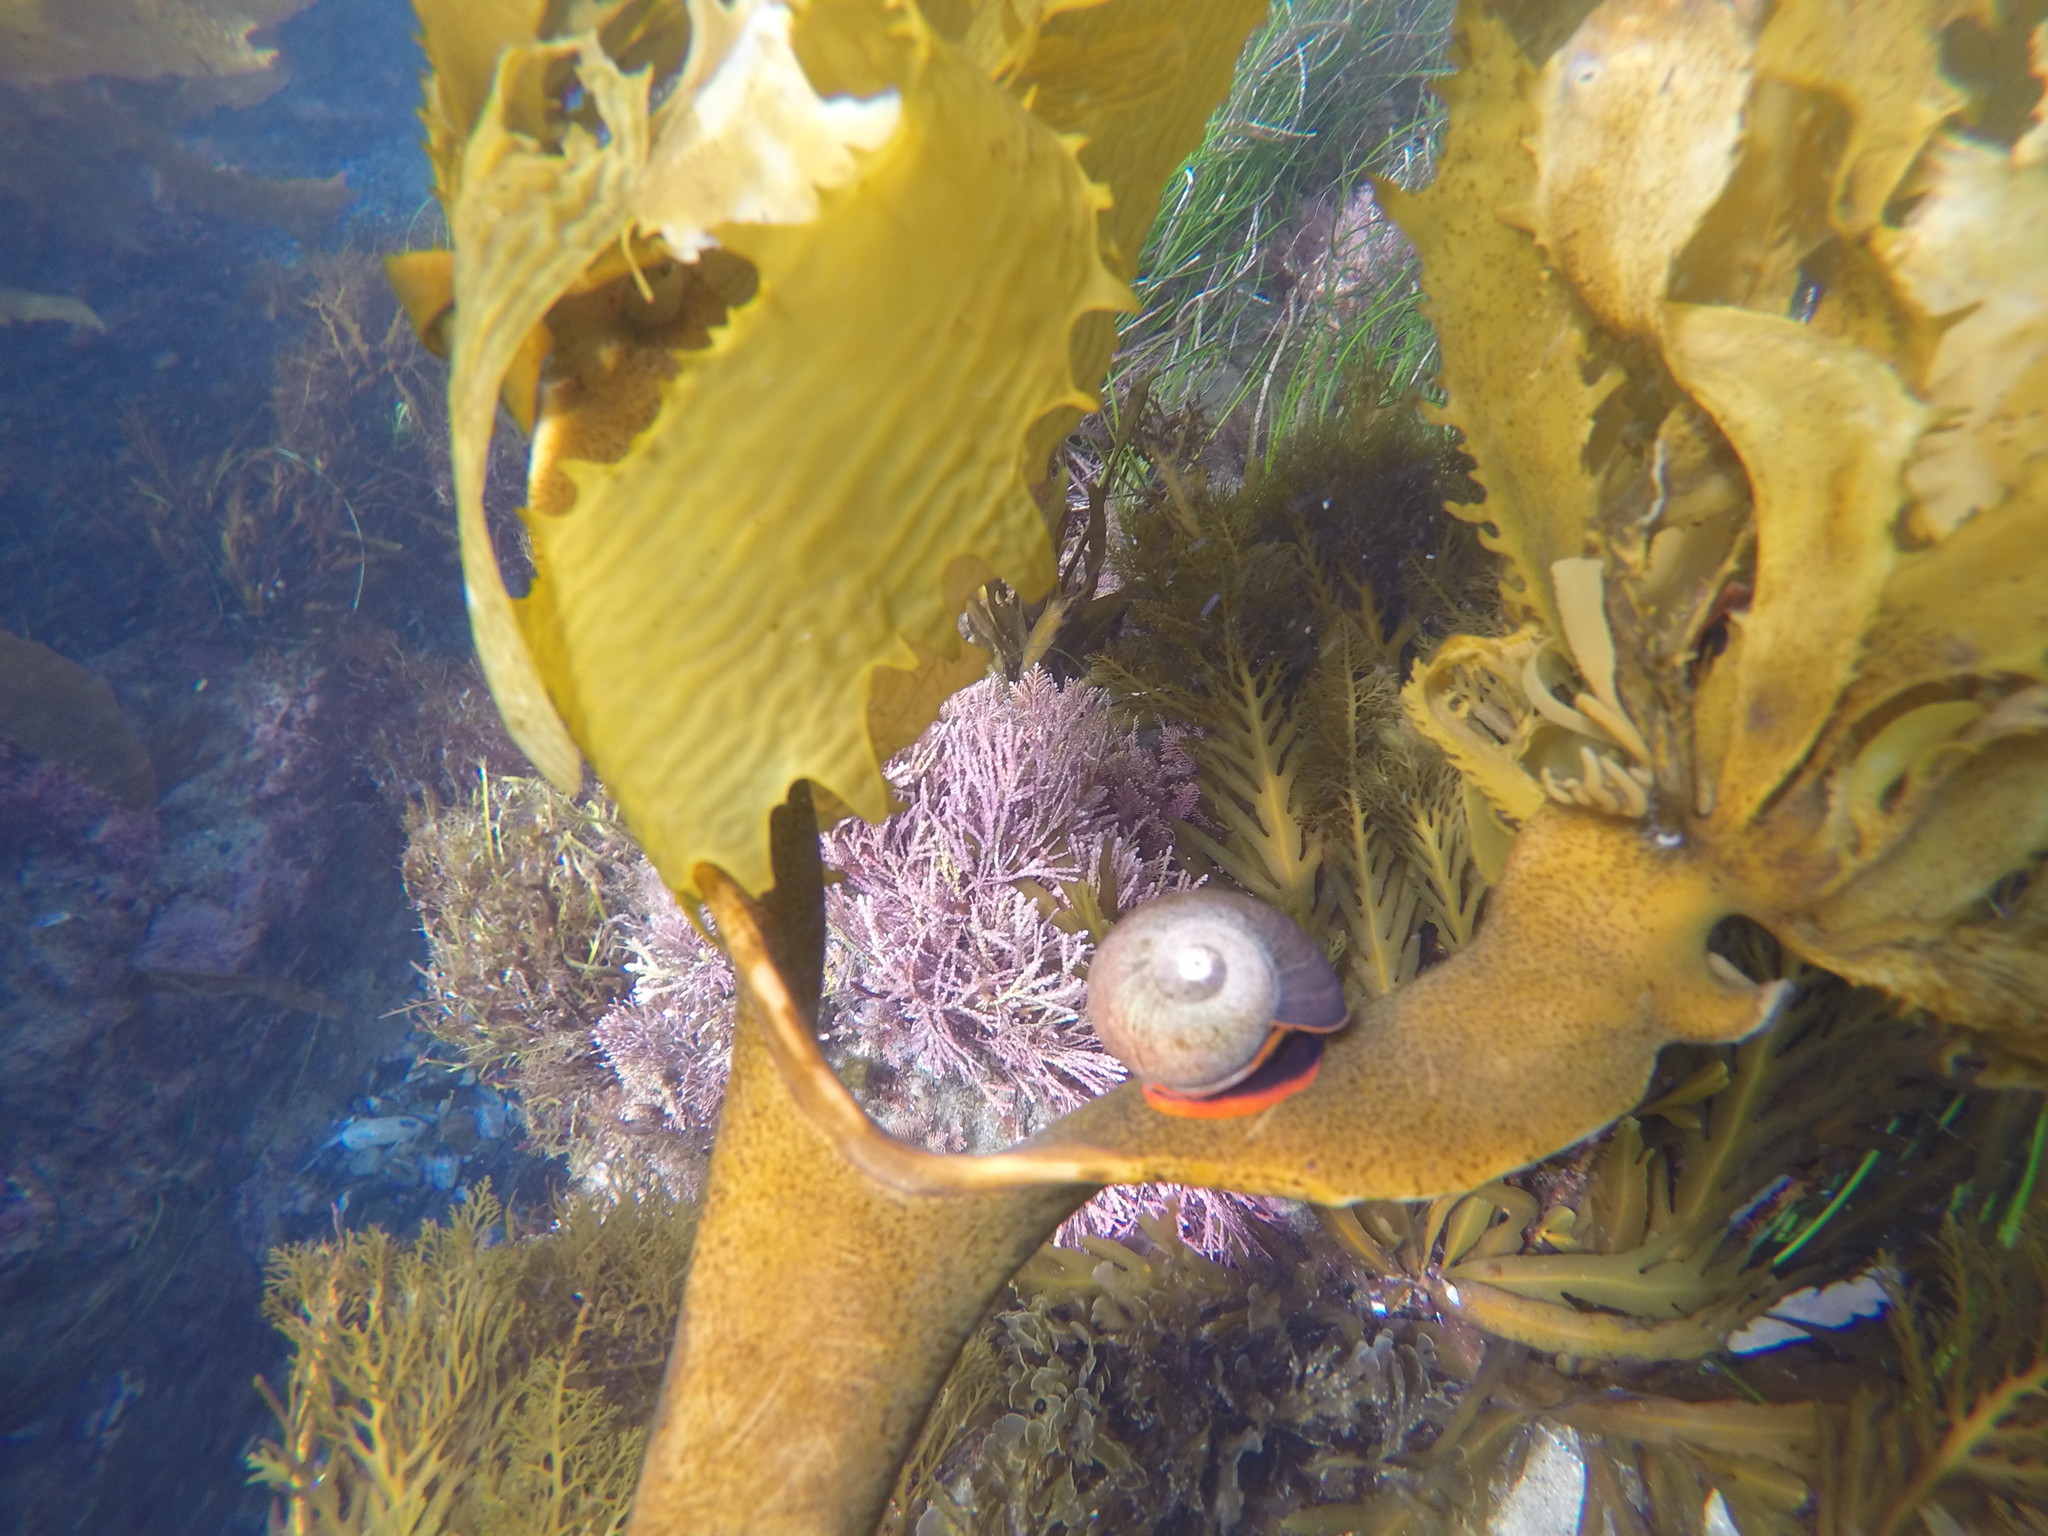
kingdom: Animalia
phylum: Mollusca
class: Gastropoda
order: Trochida
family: Tegulidae
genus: Norrisia
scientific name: Norrisia norrisii
